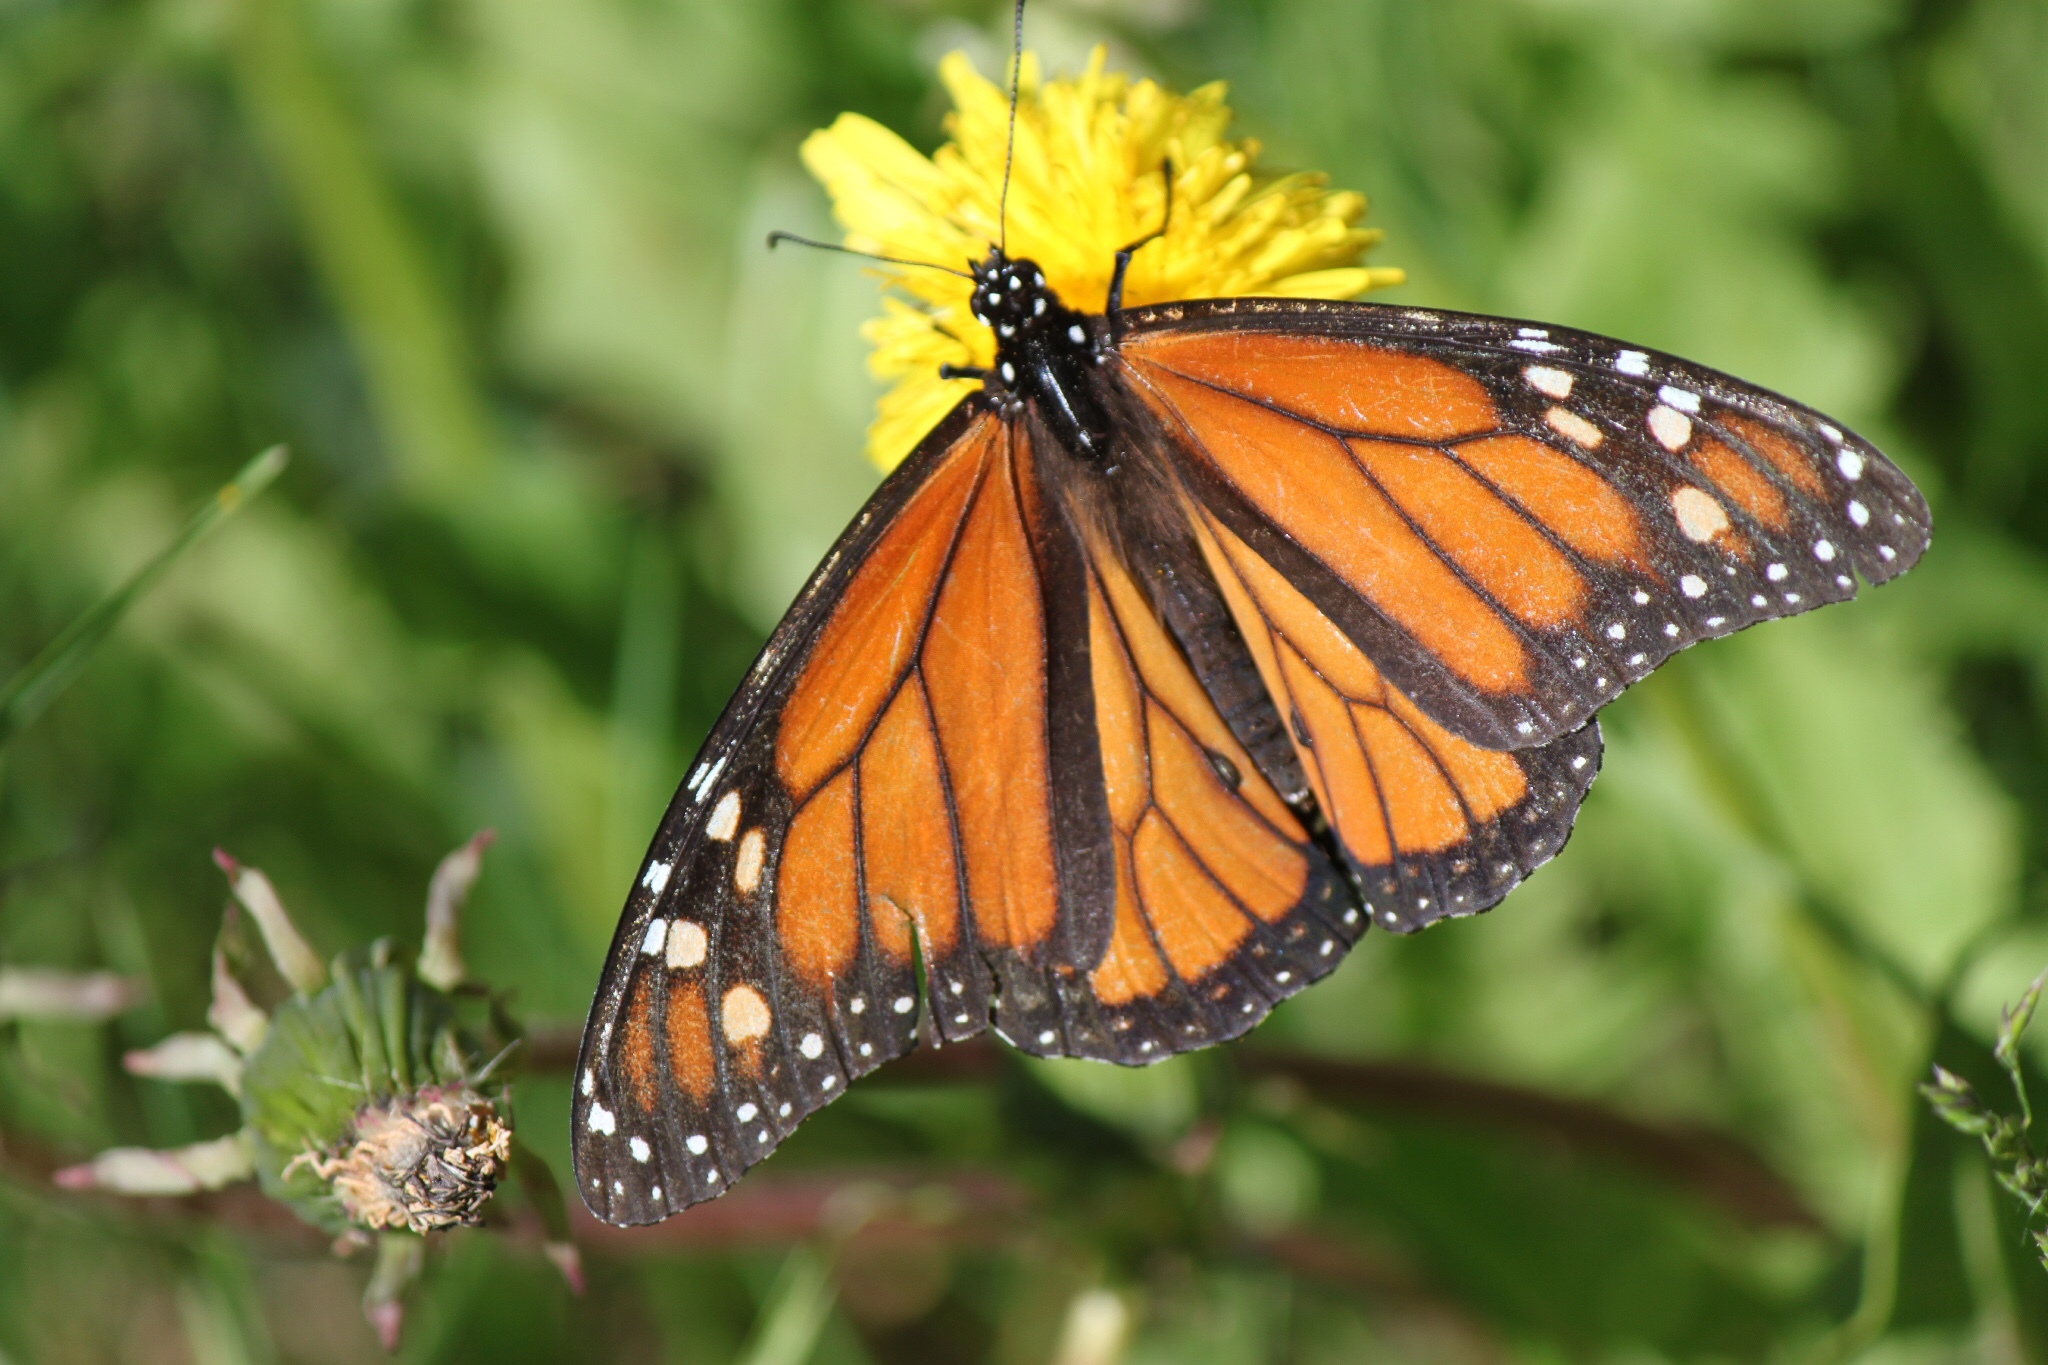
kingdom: Animalia
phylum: Arthropoda
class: Insecta
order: Lepidoptera
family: Nymphalidae
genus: Danaus
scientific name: Danaus plexippus
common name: Monarch
